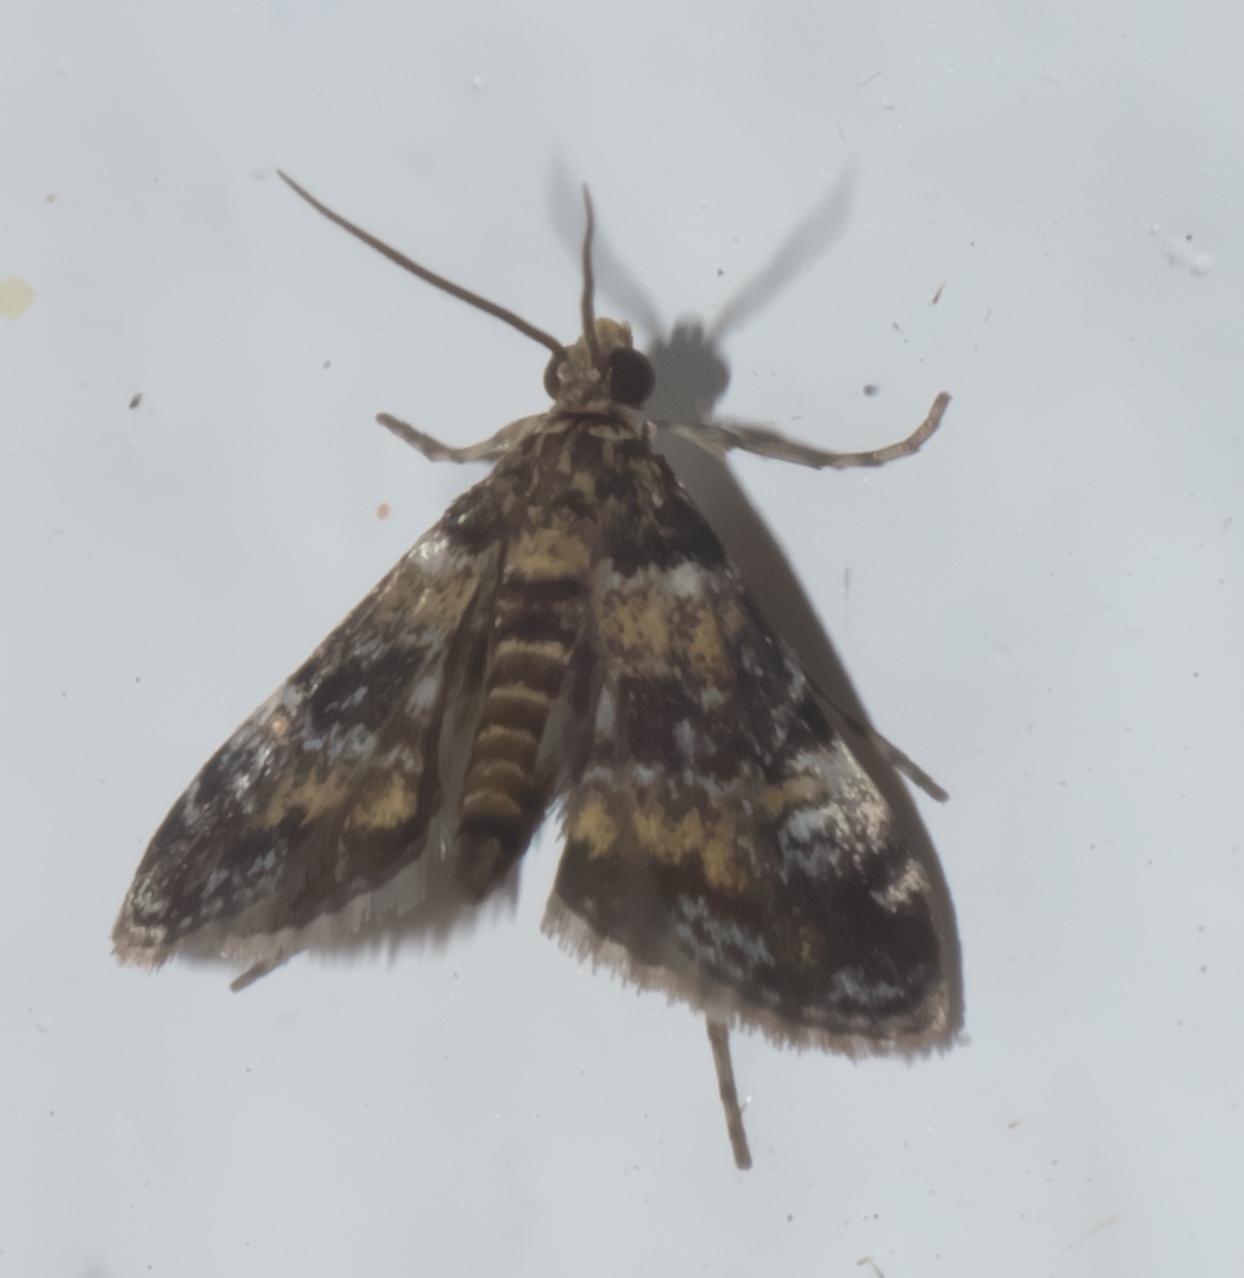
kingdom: Animalia
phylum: Arthropoda
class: Insecta
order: Lepidoptera
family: Crambidae
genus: Elophila
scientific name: Elophila obliteralis
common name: Waterlily leafcutter moth
